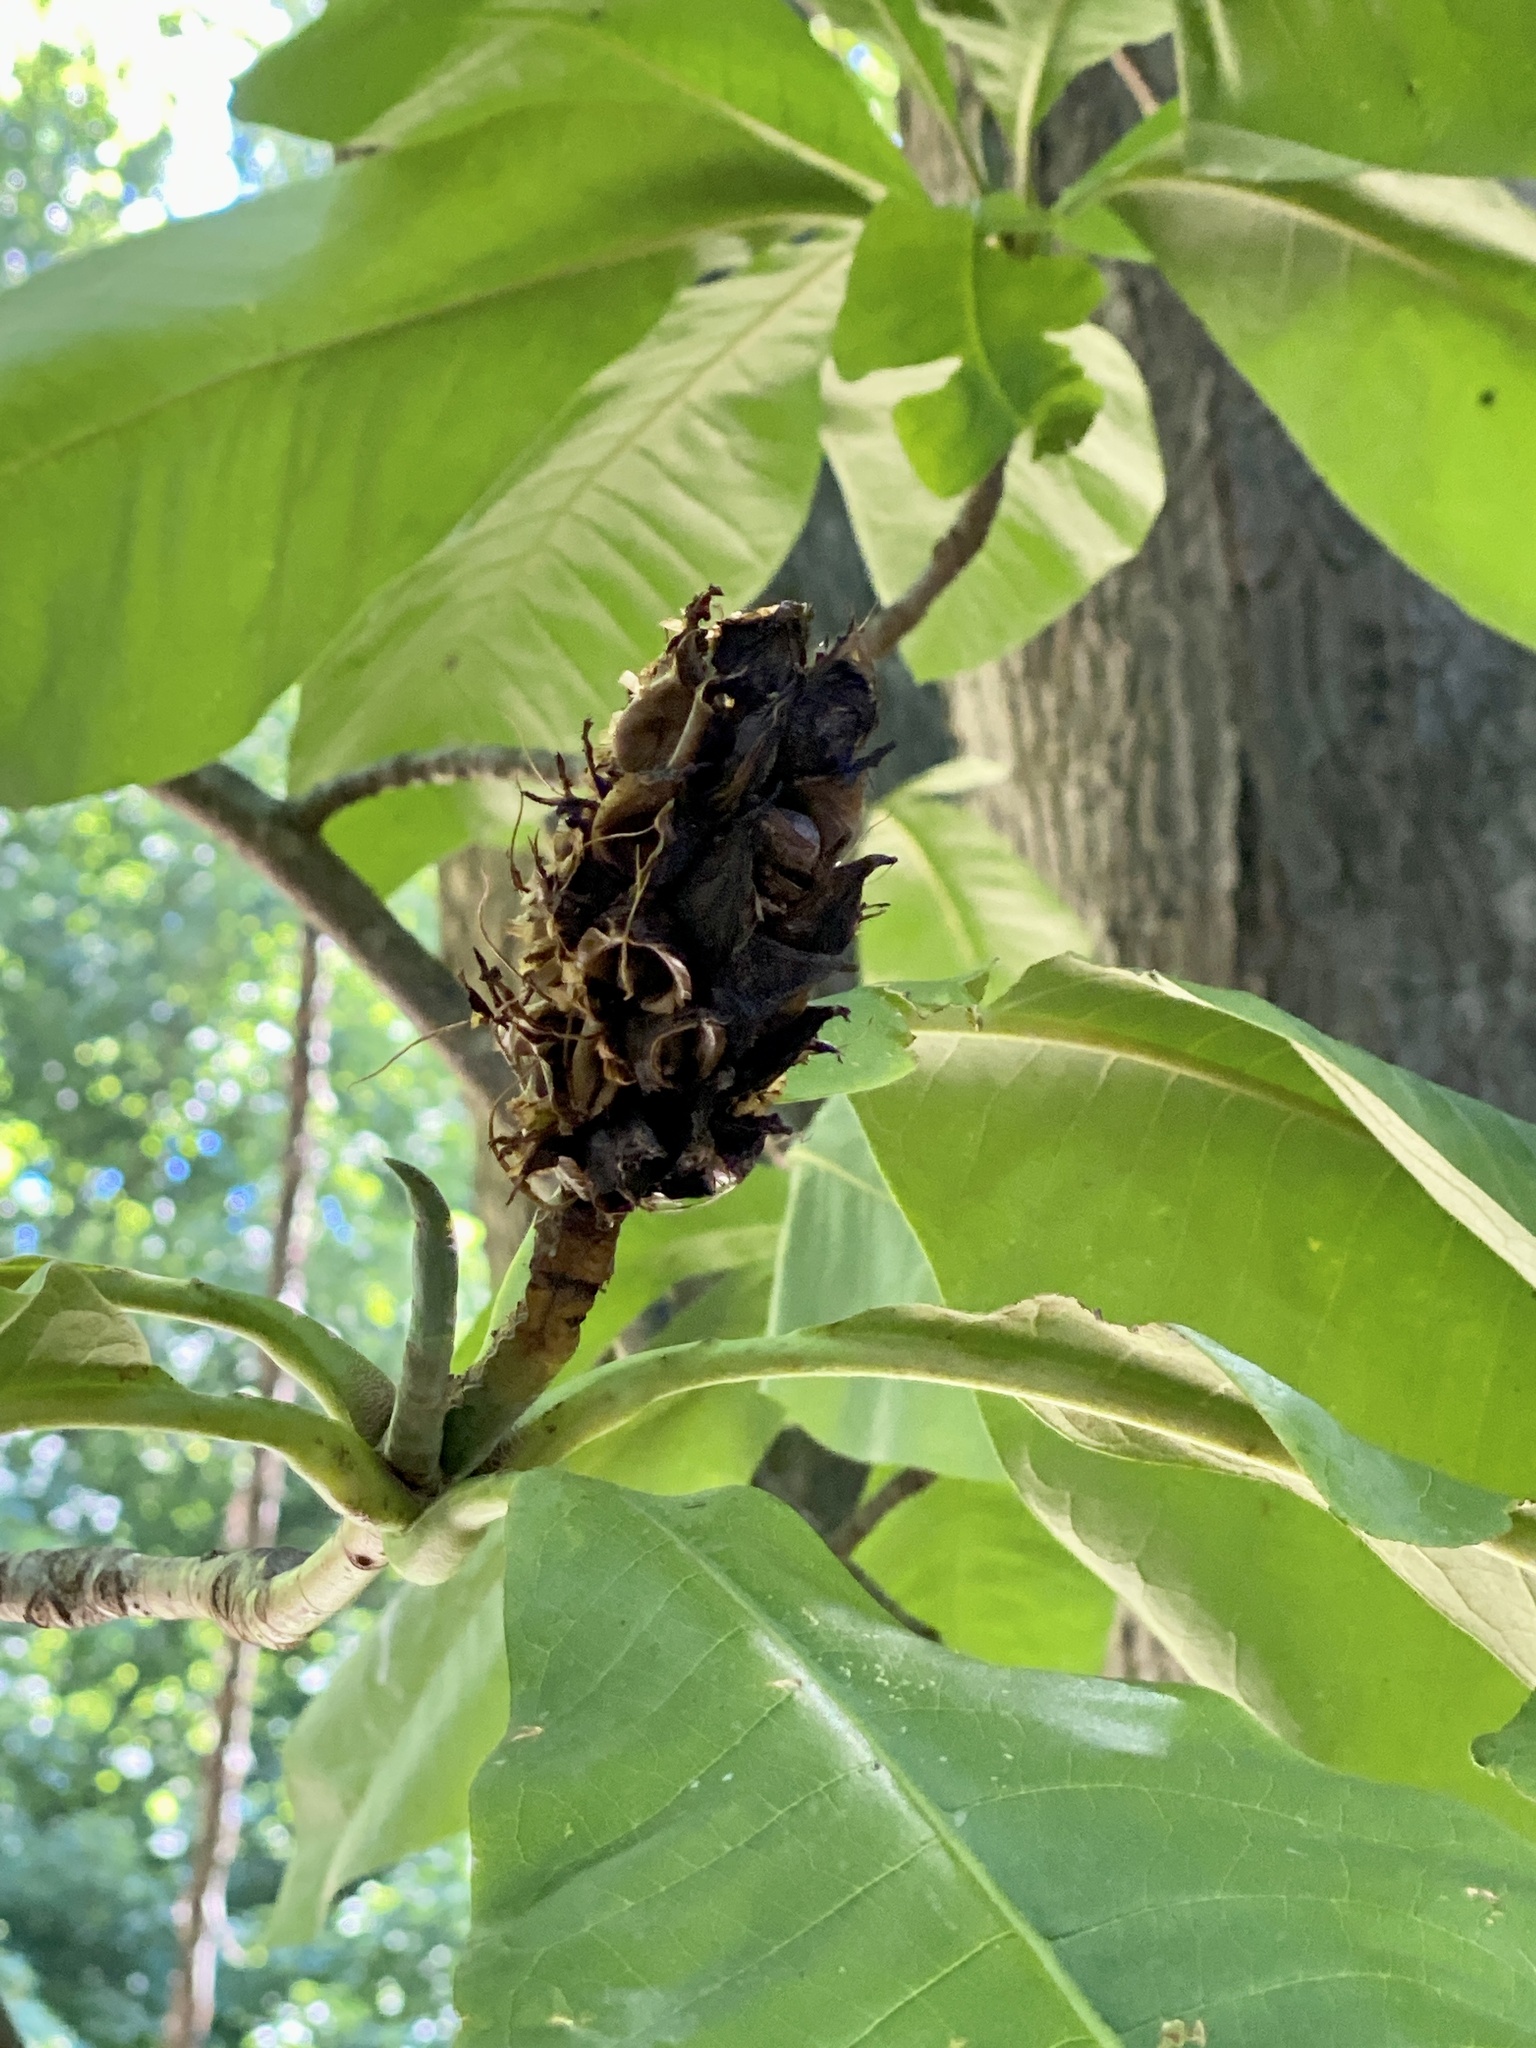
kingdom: Plantae
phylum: Tracheophyta
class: Magnoliopsida
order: Magnoliales
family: Magnoliaceae
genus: Magnolia
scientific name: Magnolia tripetala
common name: Umbrella magnolia
